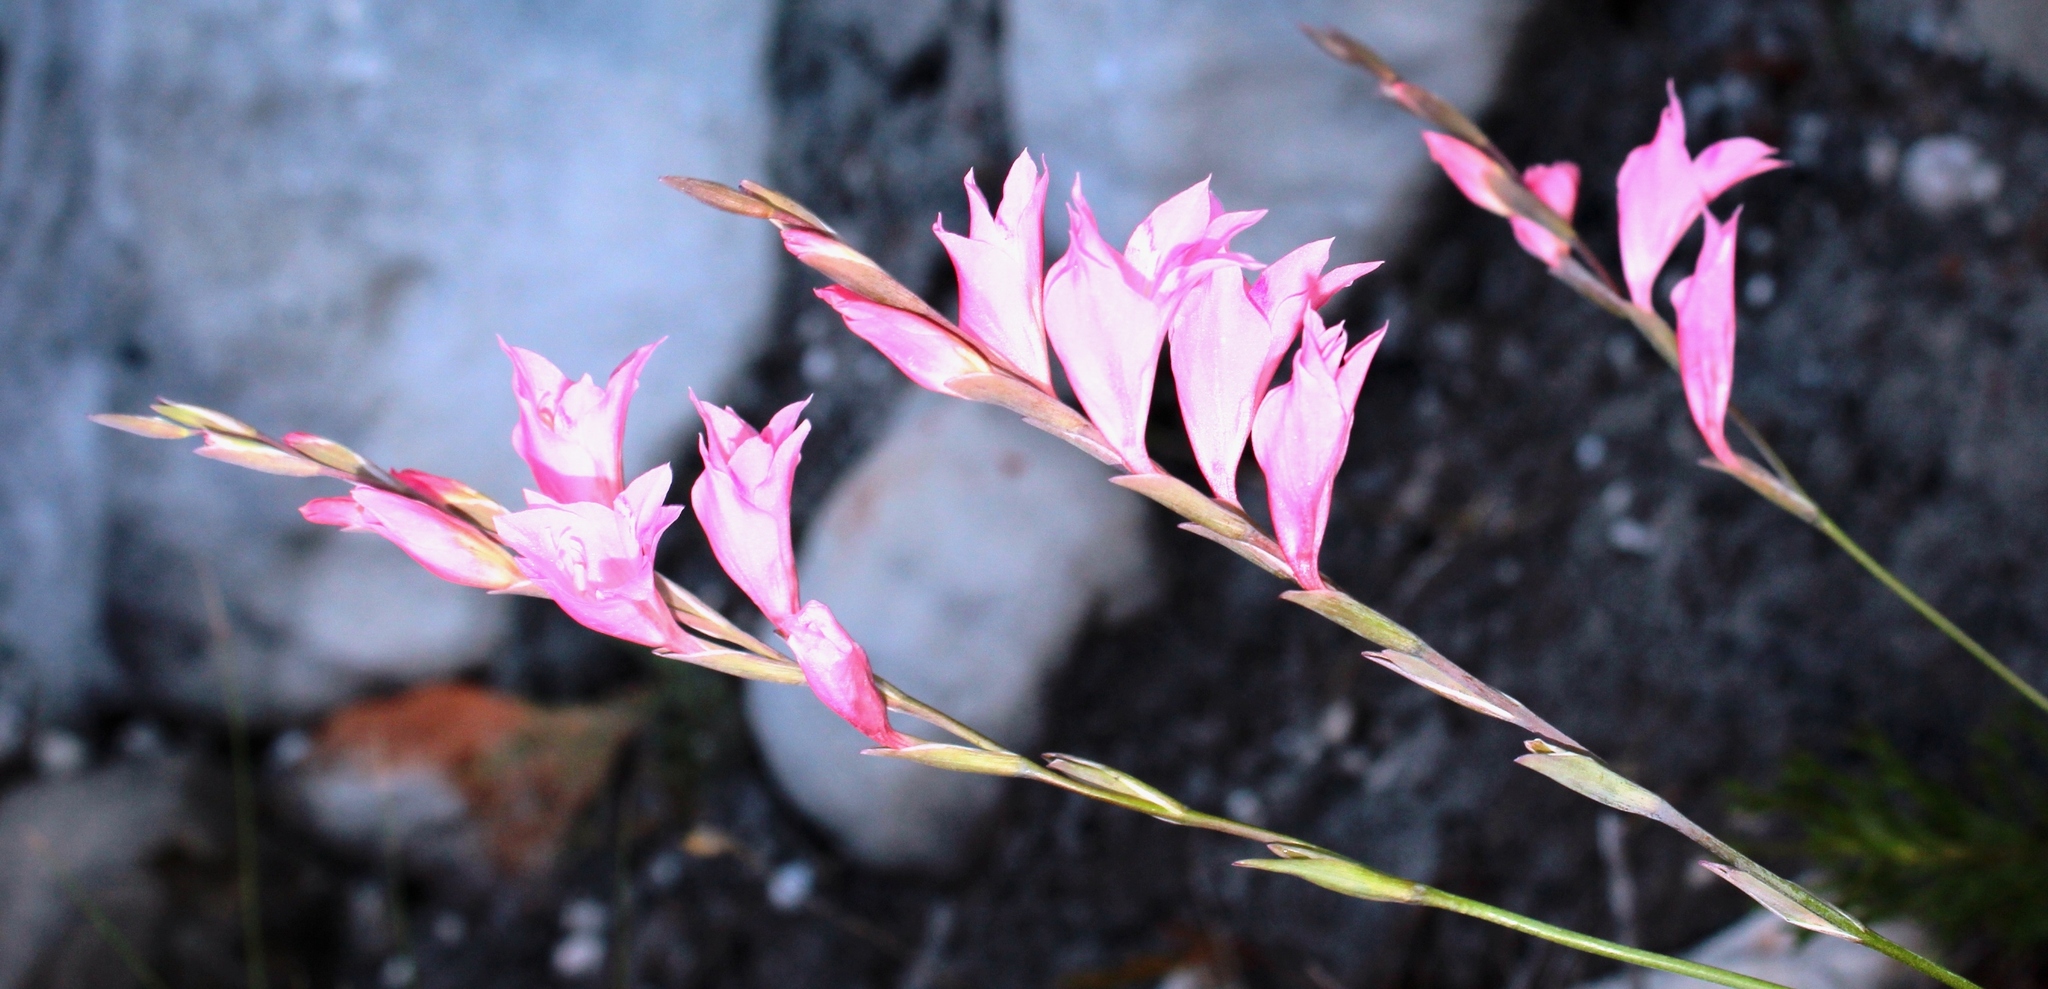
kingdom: Plantae
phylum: Tracheophyta
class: Liliopsida
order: Asparagales
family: Iridaceae
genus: Gladiolus
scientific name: Gladiolus brevifolius
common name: March pypie
